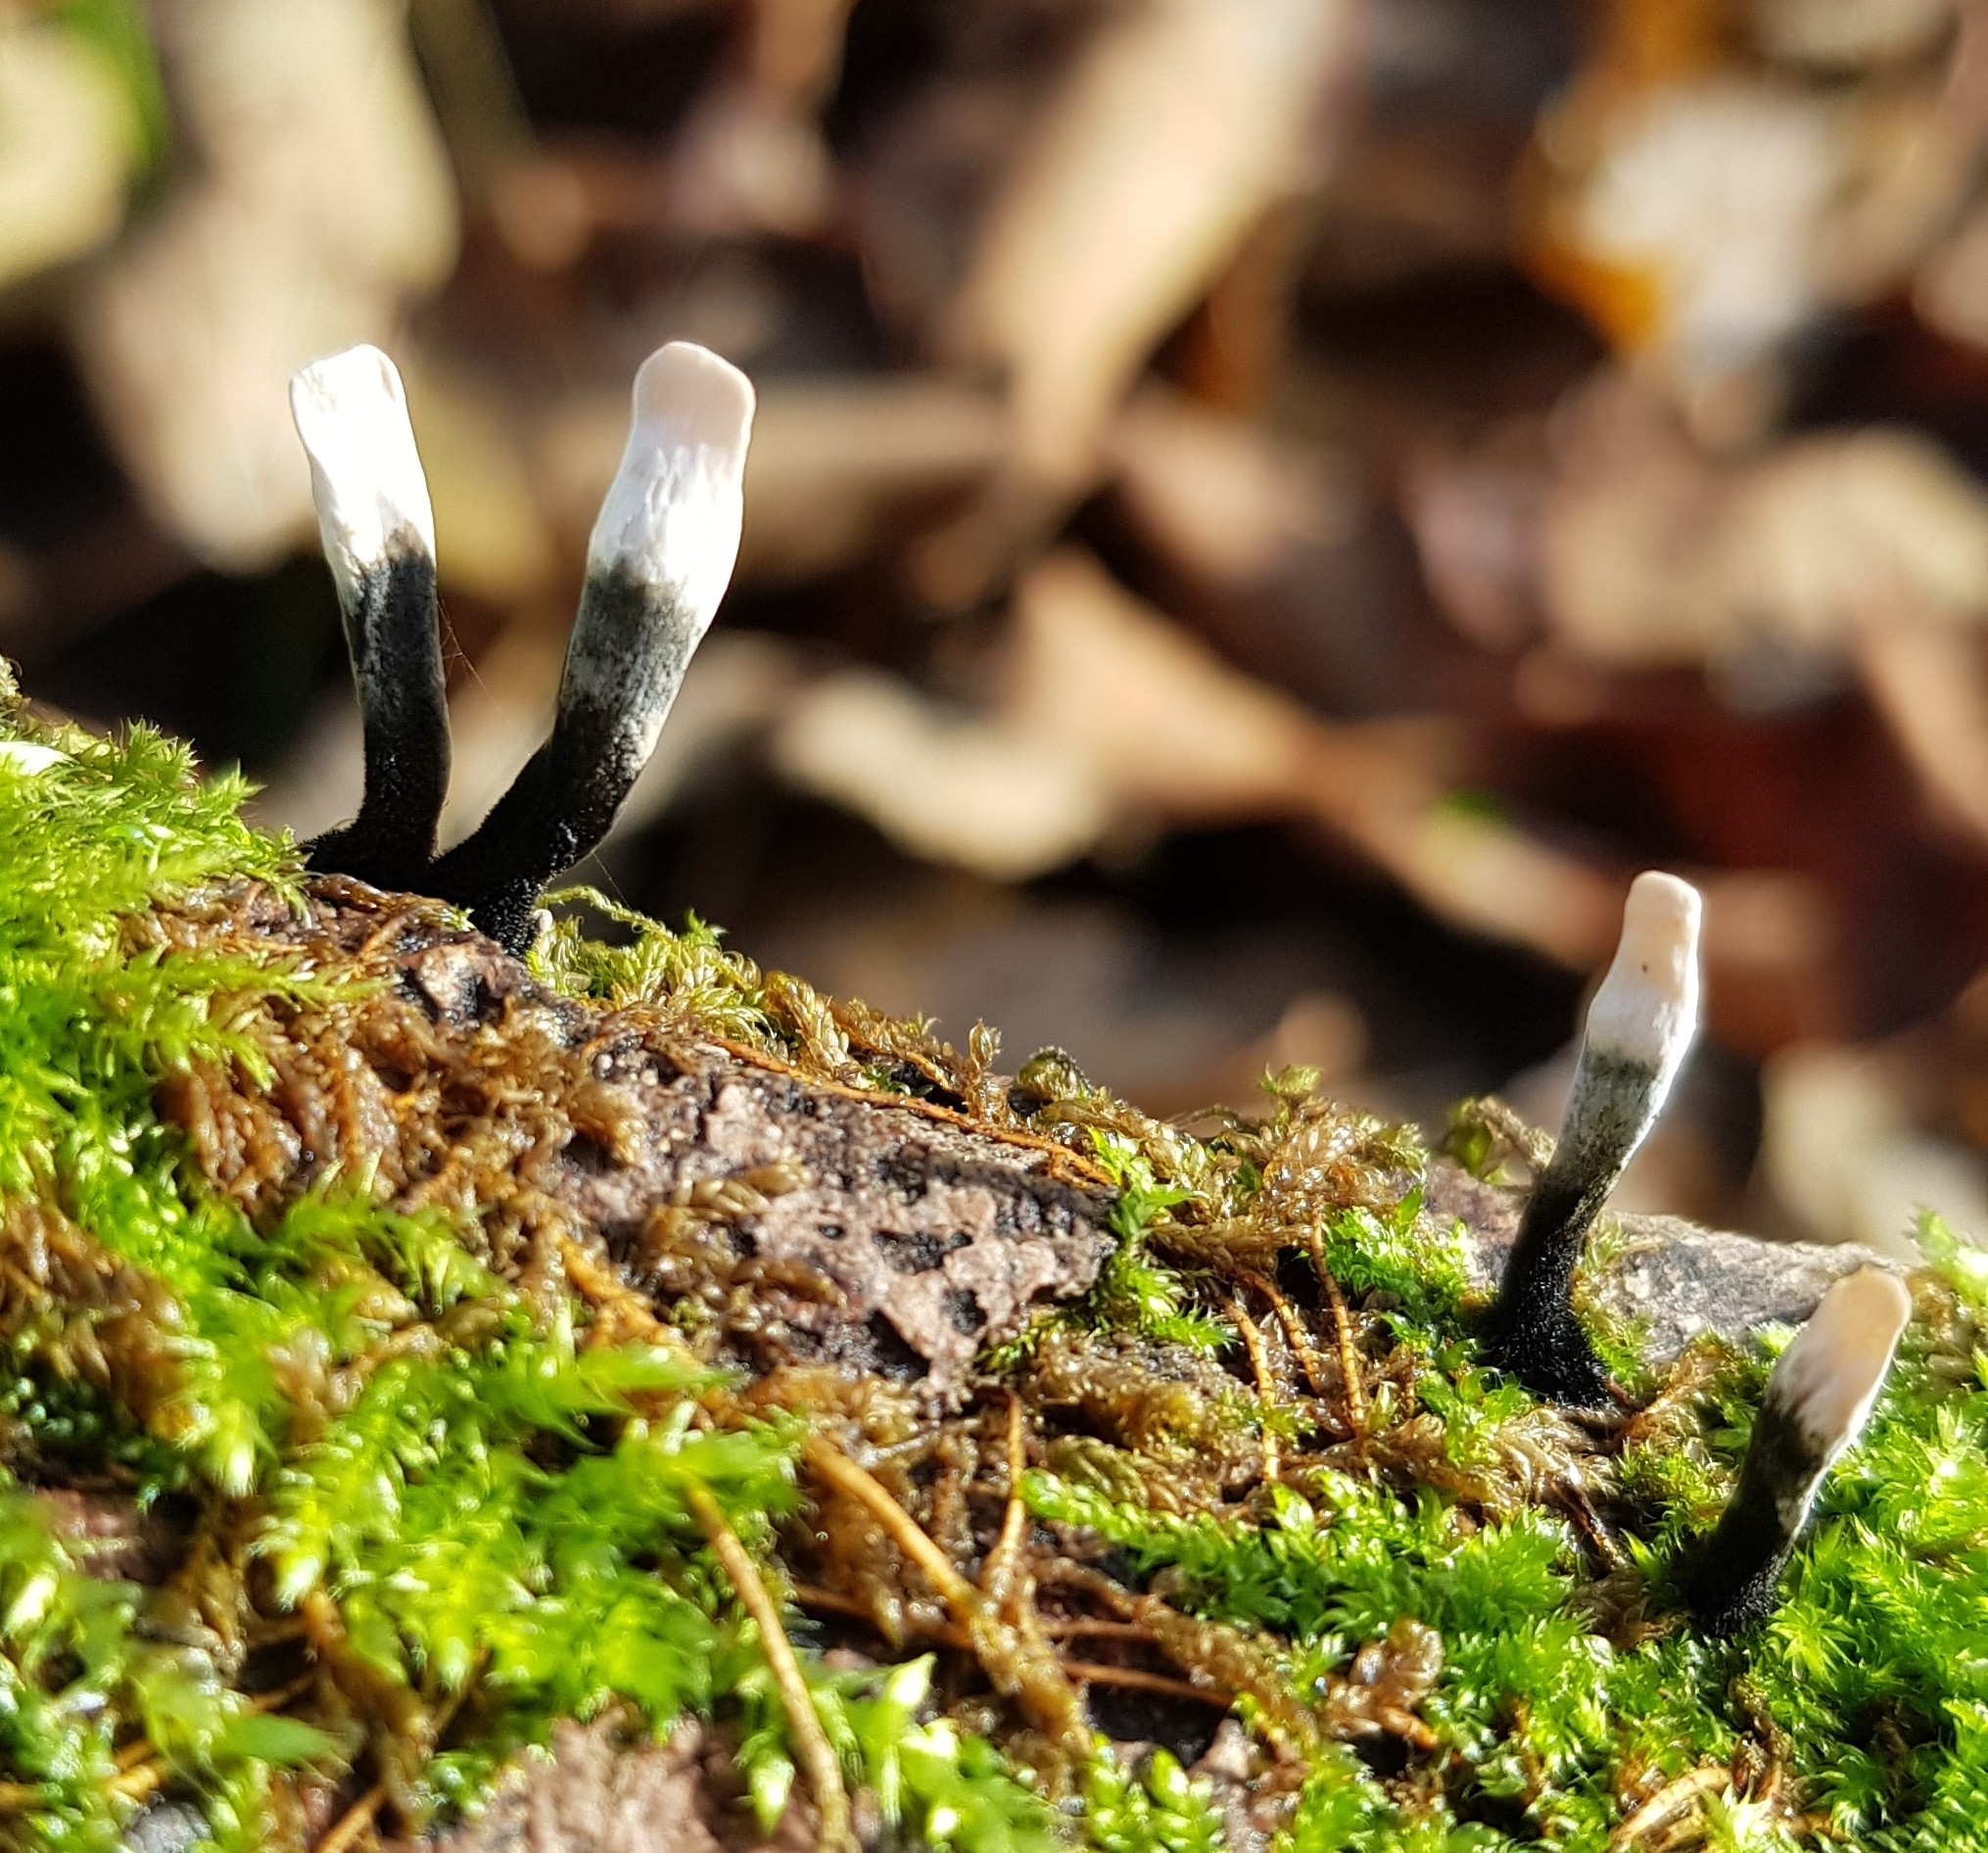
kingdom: Fungi
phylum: Ascomycota
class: Sordariomycetes
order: Xylariales
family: Xylariaceae
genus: Xylaria
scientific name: Xylaria hypoxylon
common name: Candle-snuff fungus
